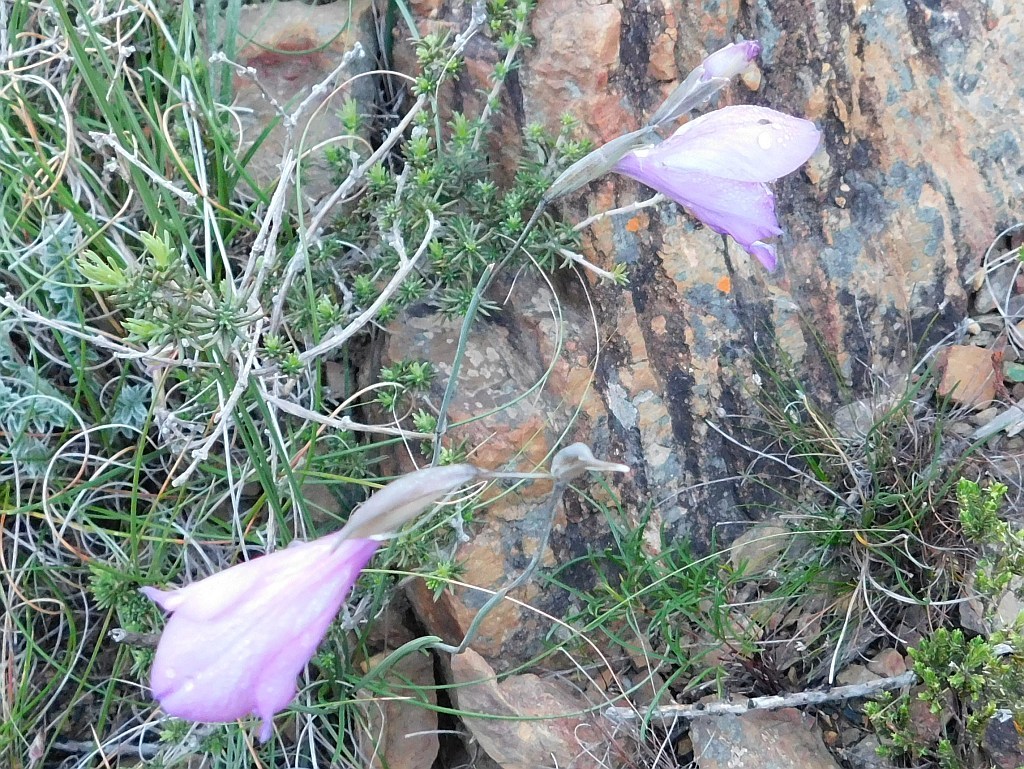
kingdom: Plantae
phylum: Tracheophyta
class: Liliopsida
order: Asparagales
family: Iridaceae
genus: Gladiolus
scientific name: Gladiolus rogersii
